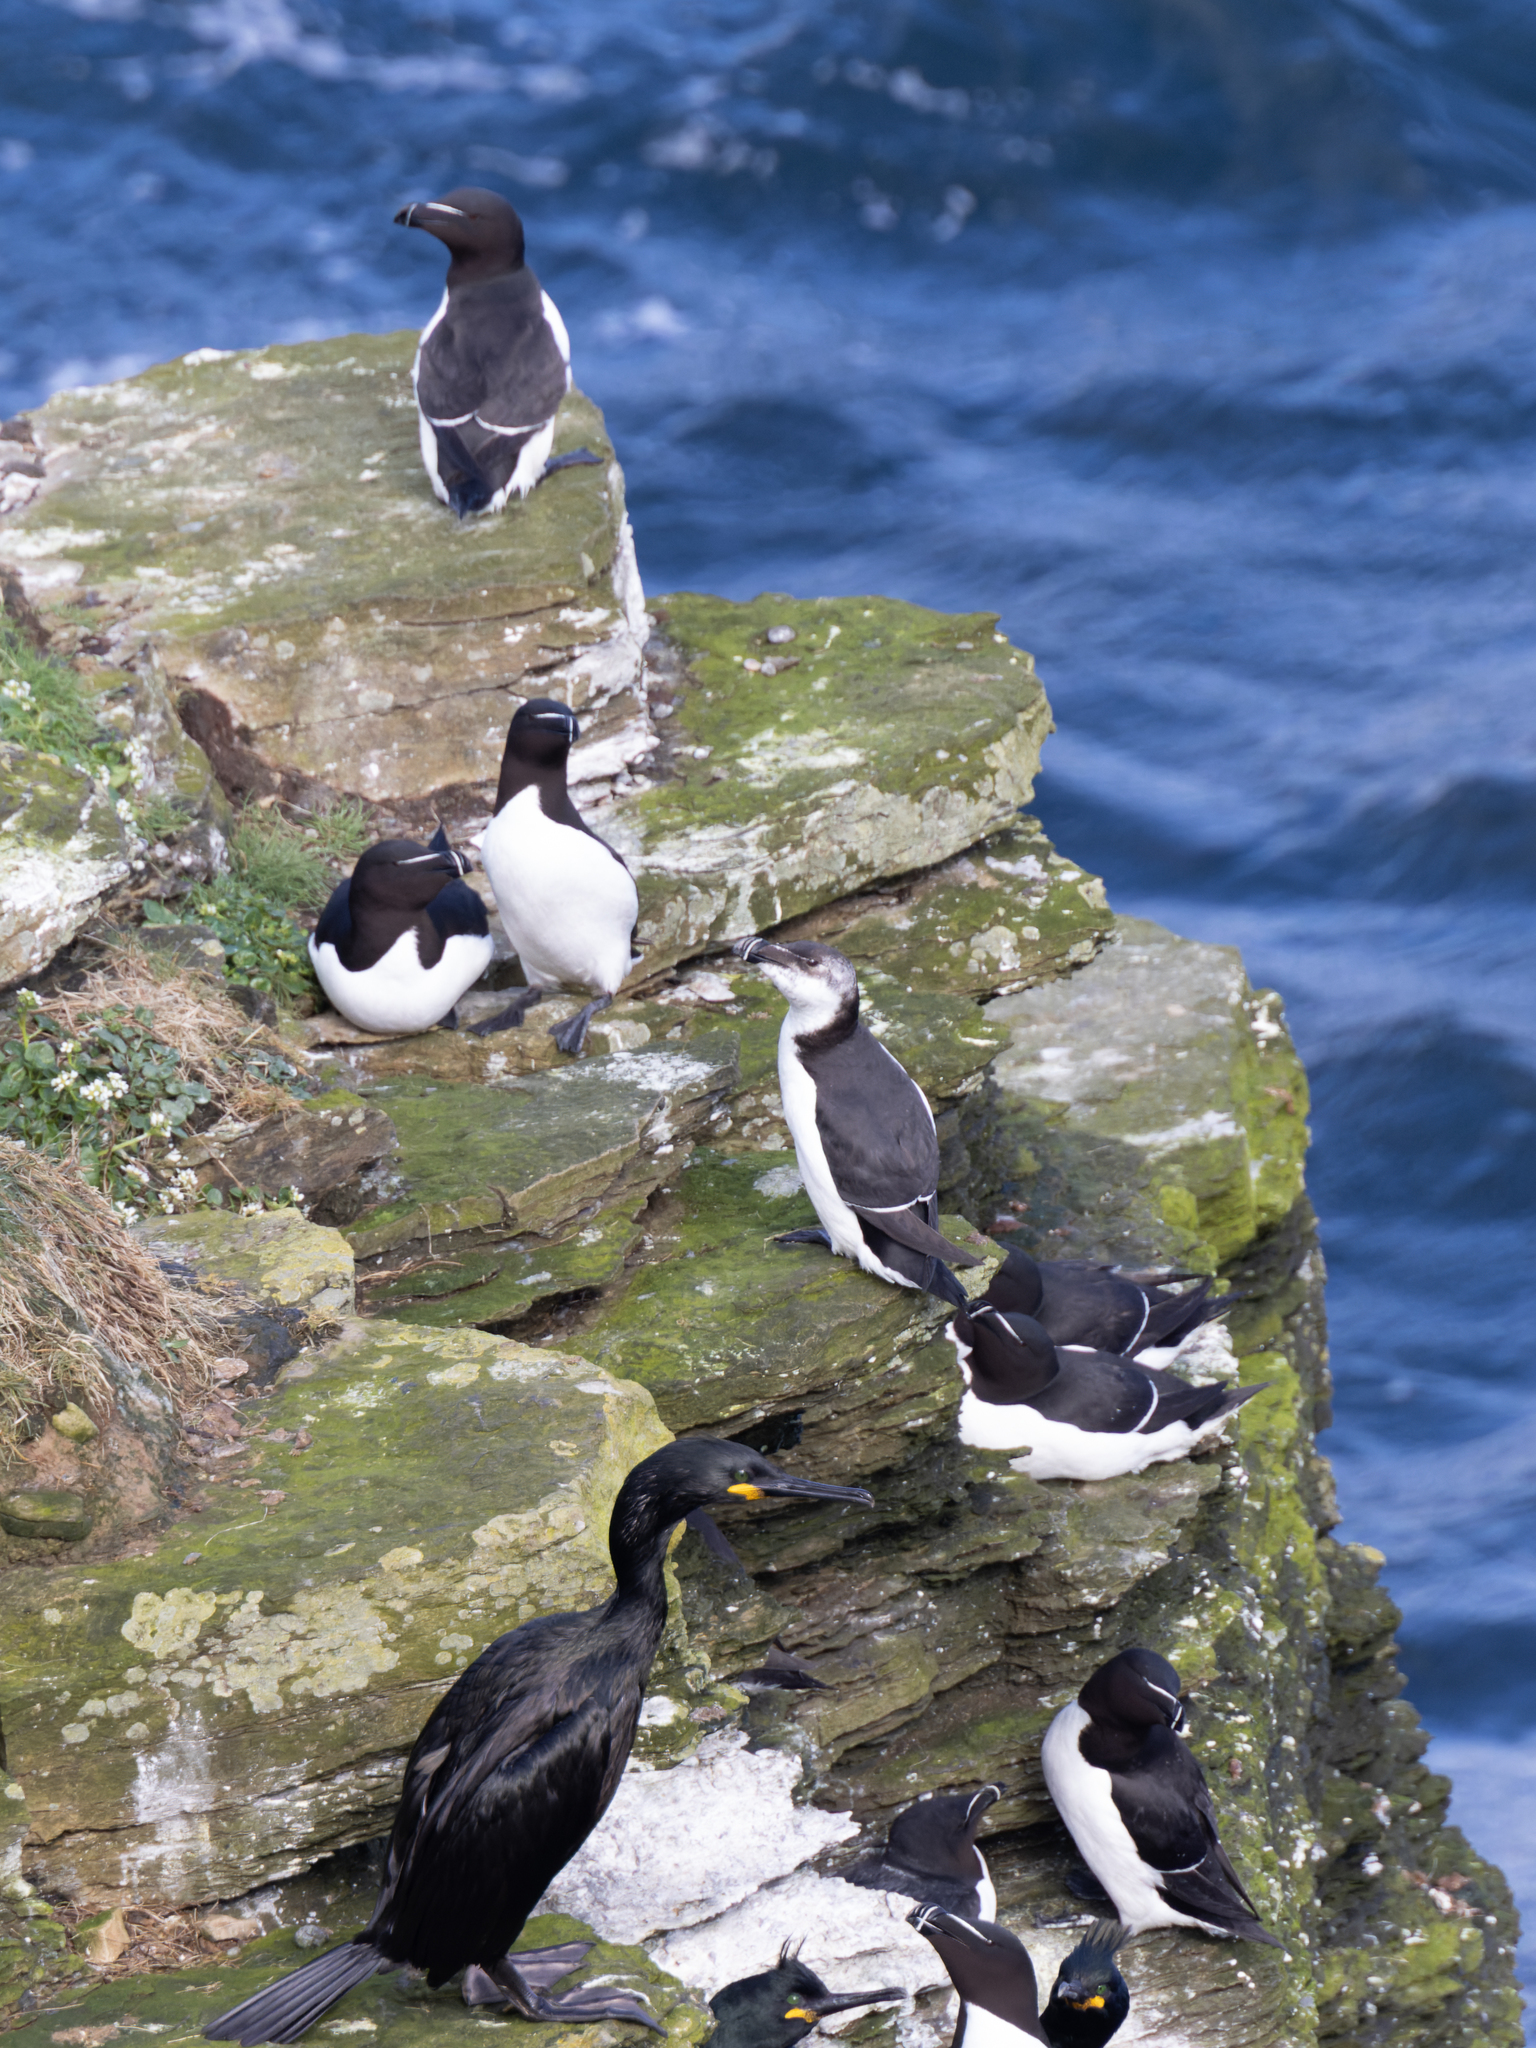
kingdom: Animalia
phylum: Chordata
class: Aves
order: Charadriiformes
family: Alcidae
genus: Alca
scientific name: Alca torda
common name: Razorbill
